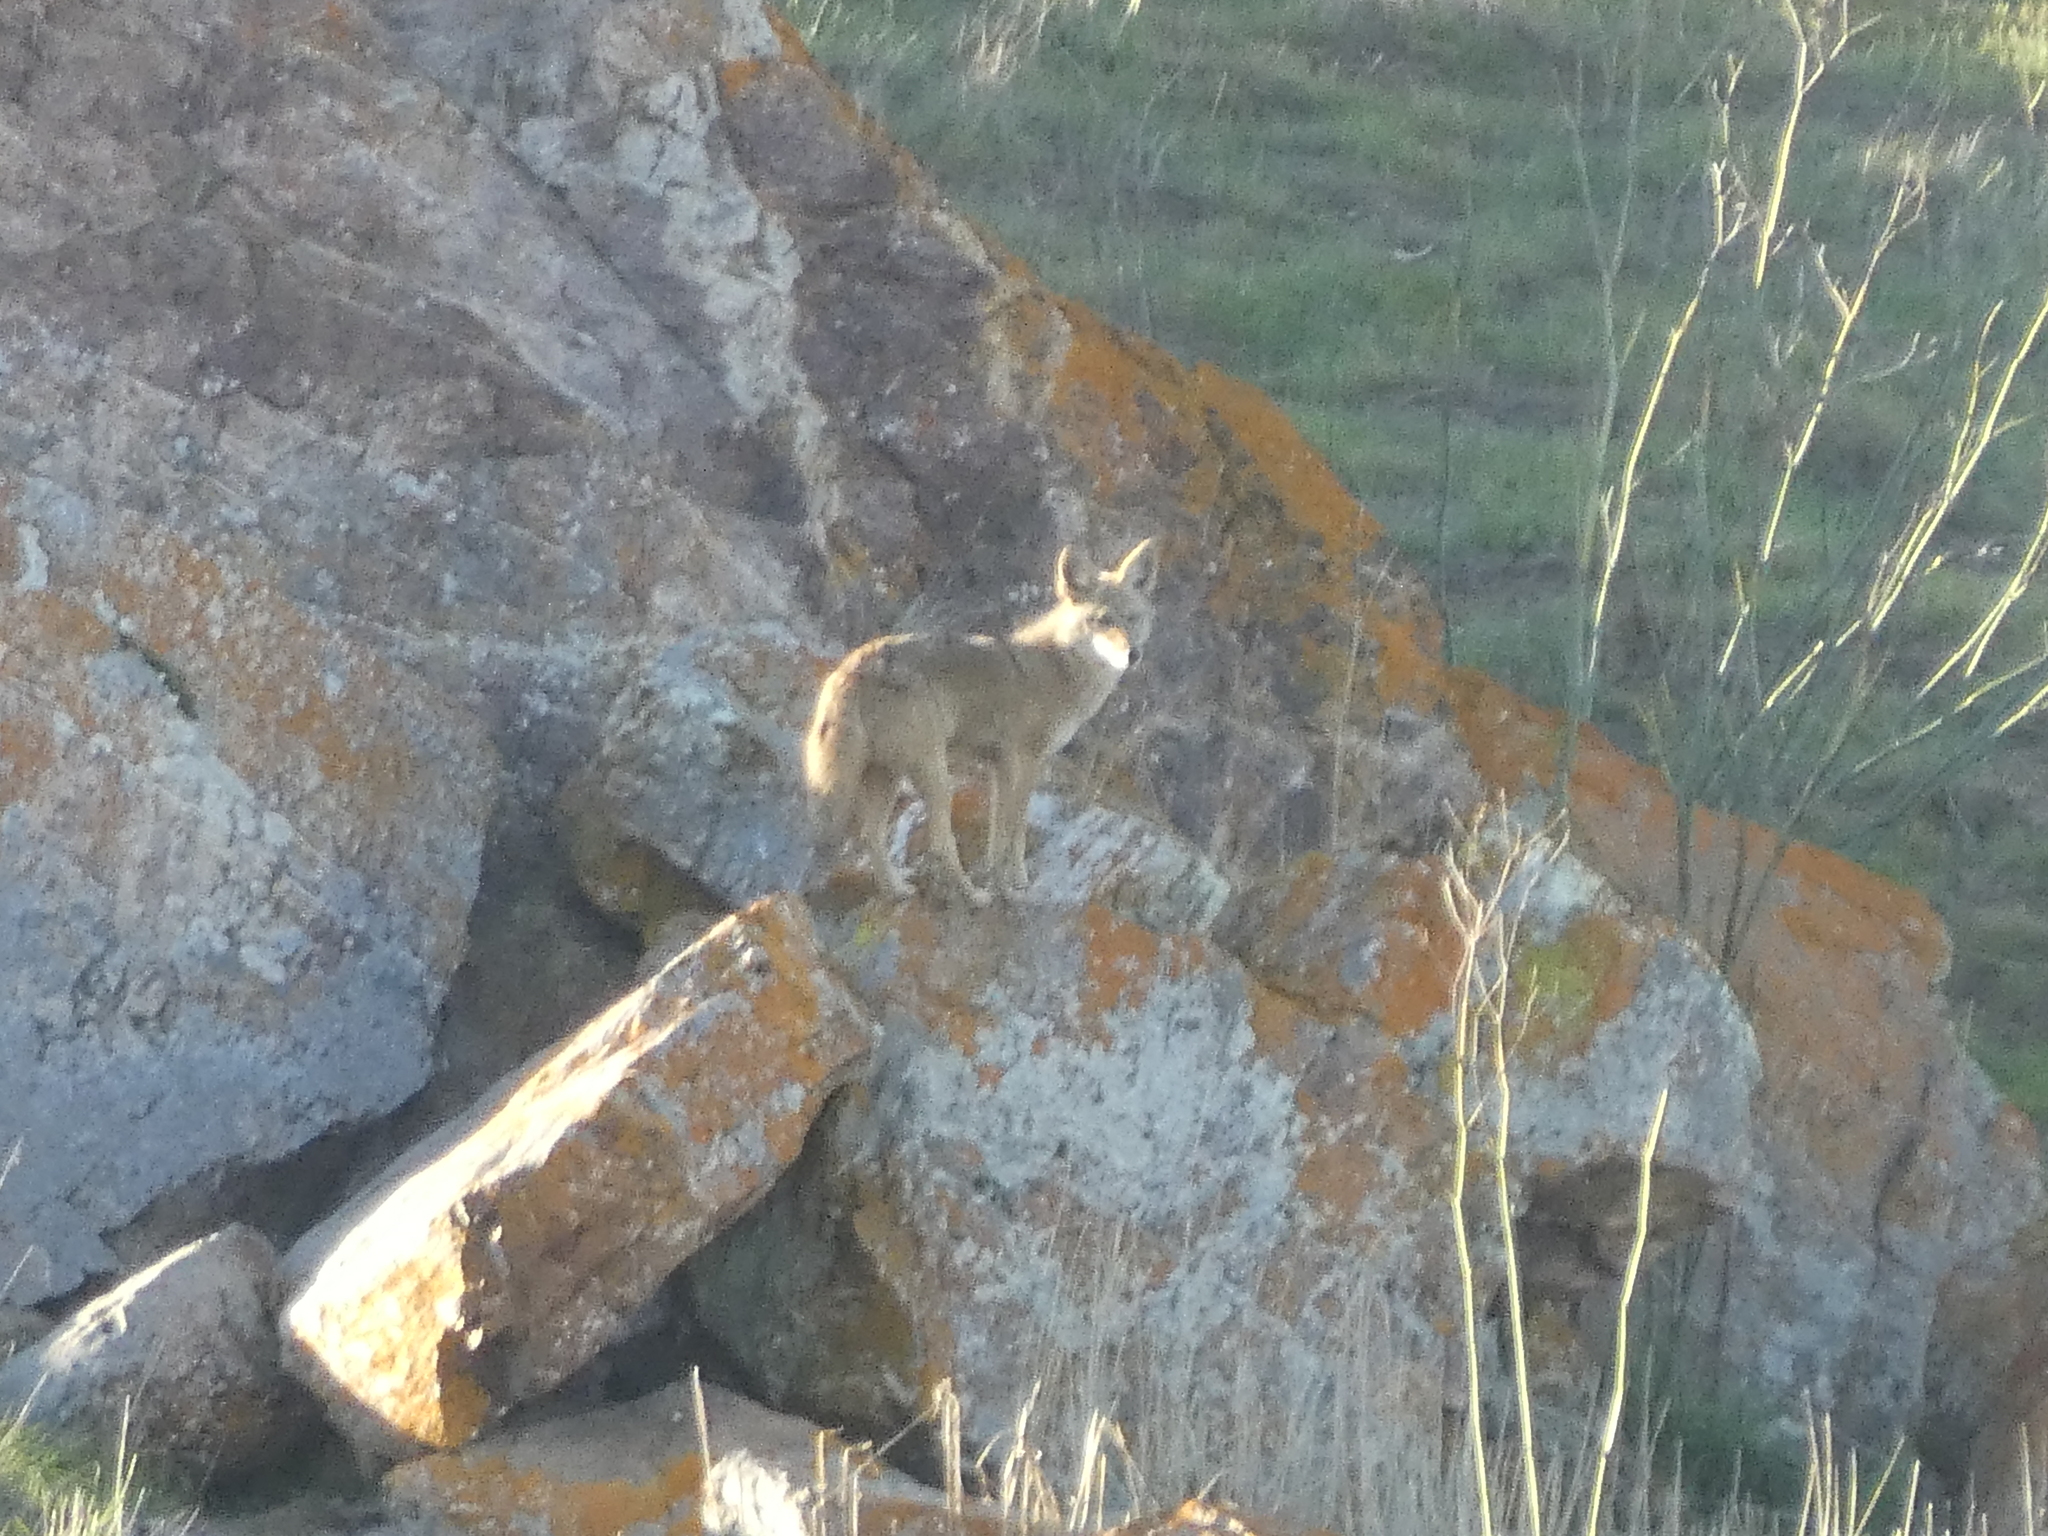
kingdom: Animalia
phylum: Chordata
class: Mammalia
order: Carnivora
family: Canidae
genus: Canis
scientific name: Canis latrans
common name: Coyote
